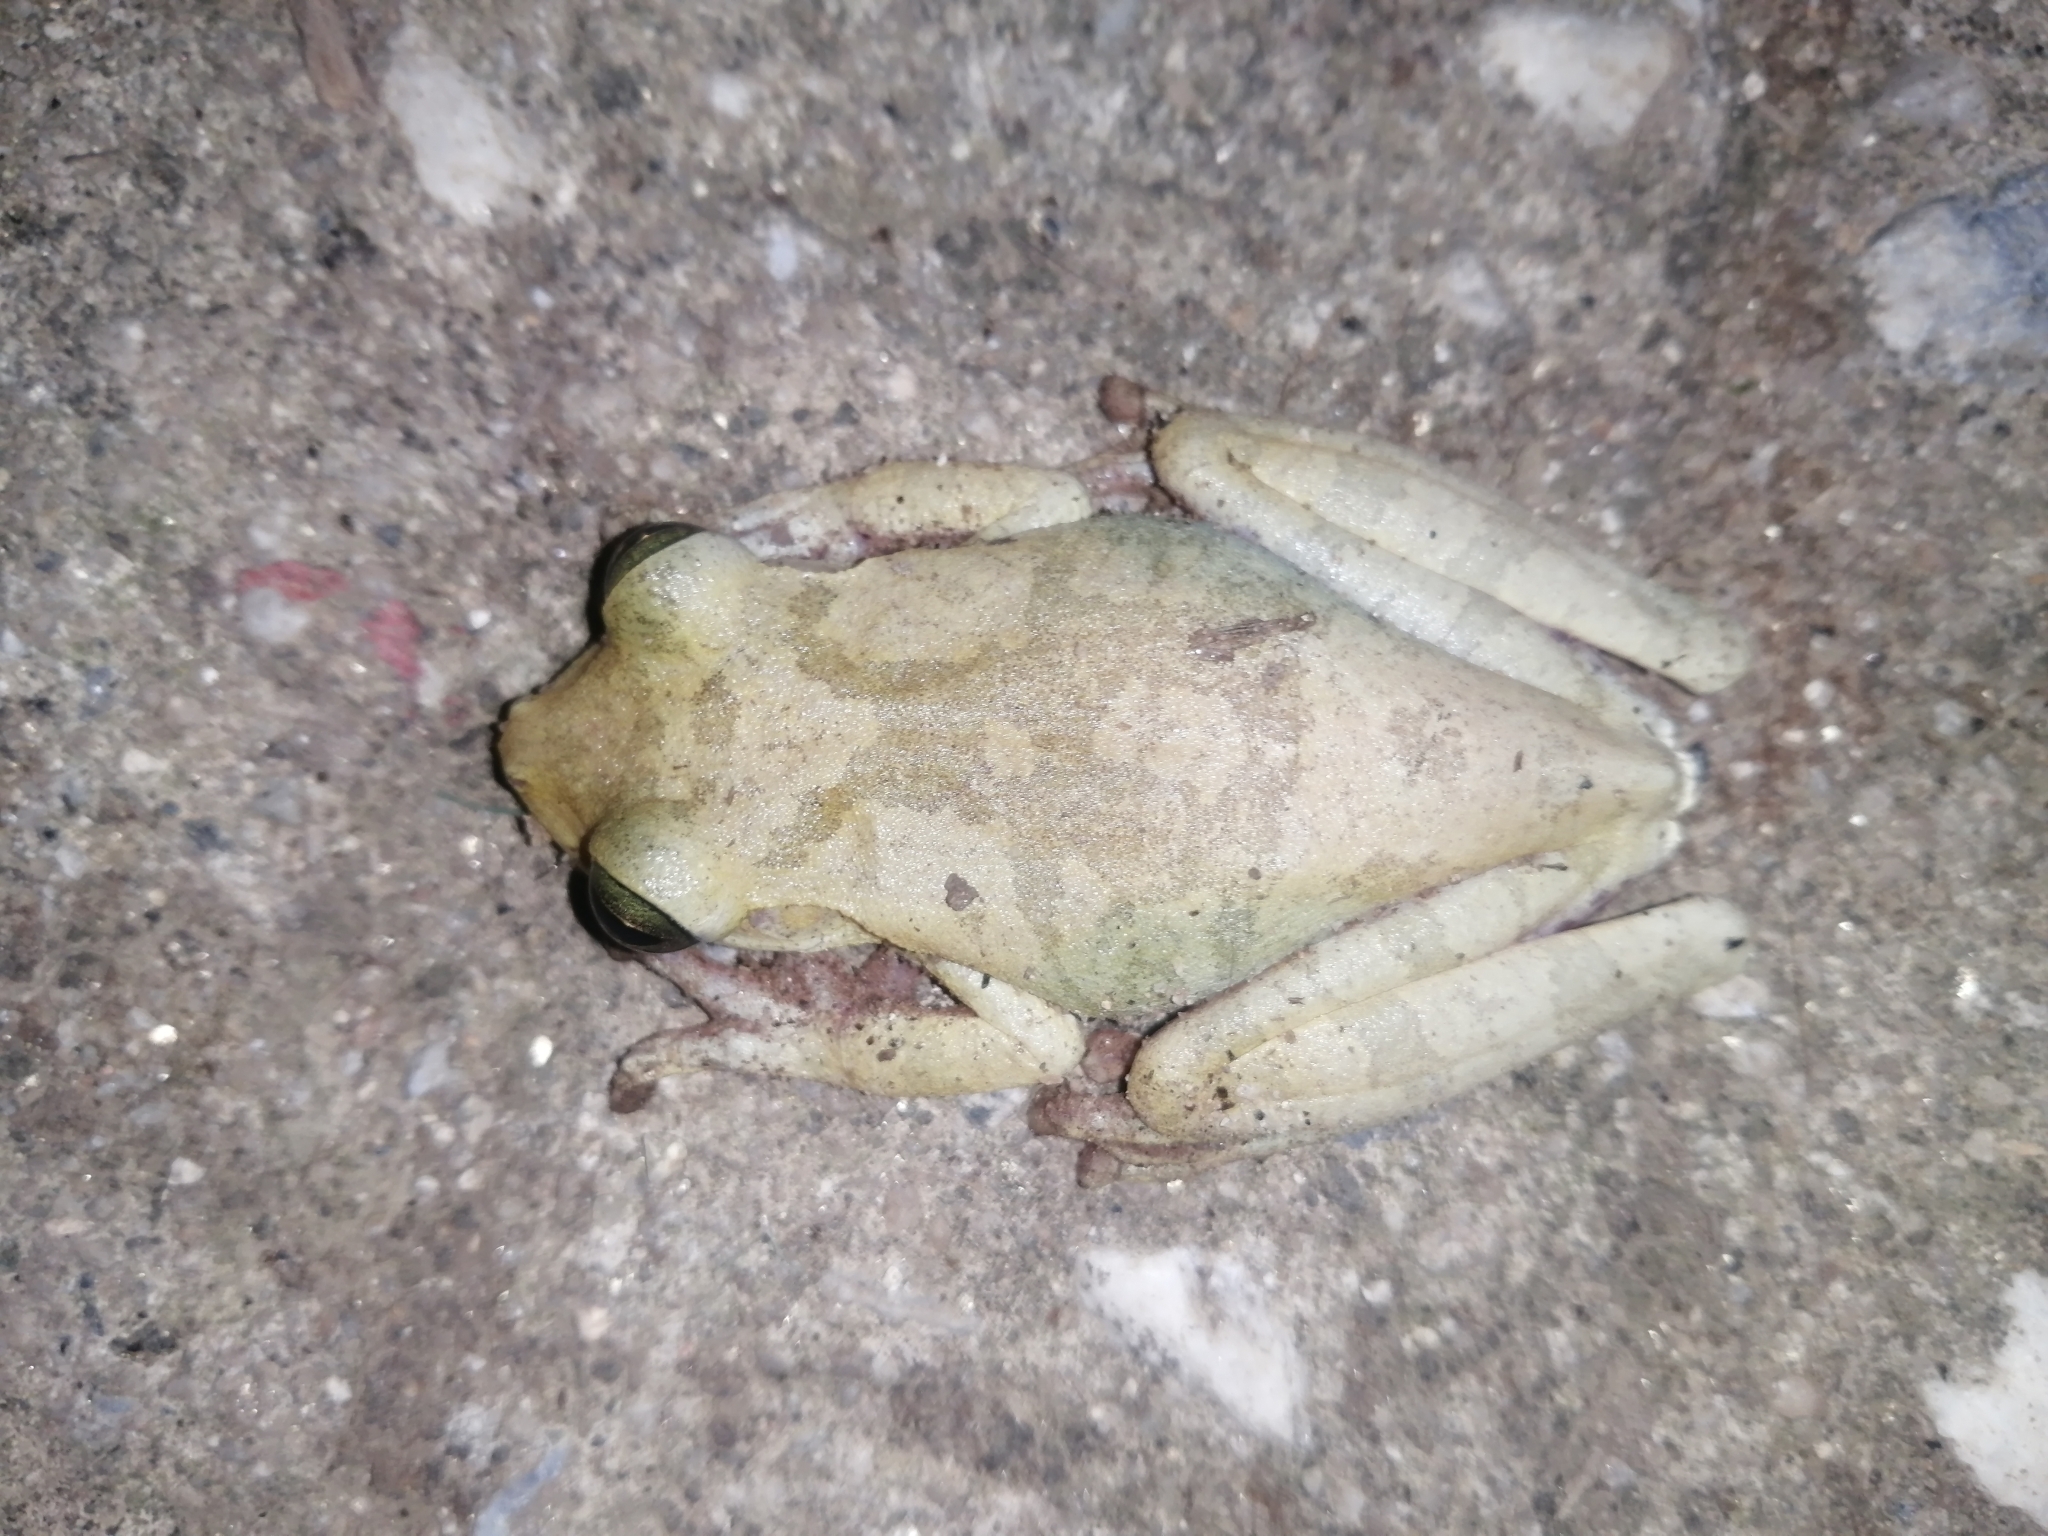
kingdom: Animalia
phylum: Chordata
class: Amphibia
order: Anura
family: Hylidae
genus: Boana
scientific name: Boana platanera
